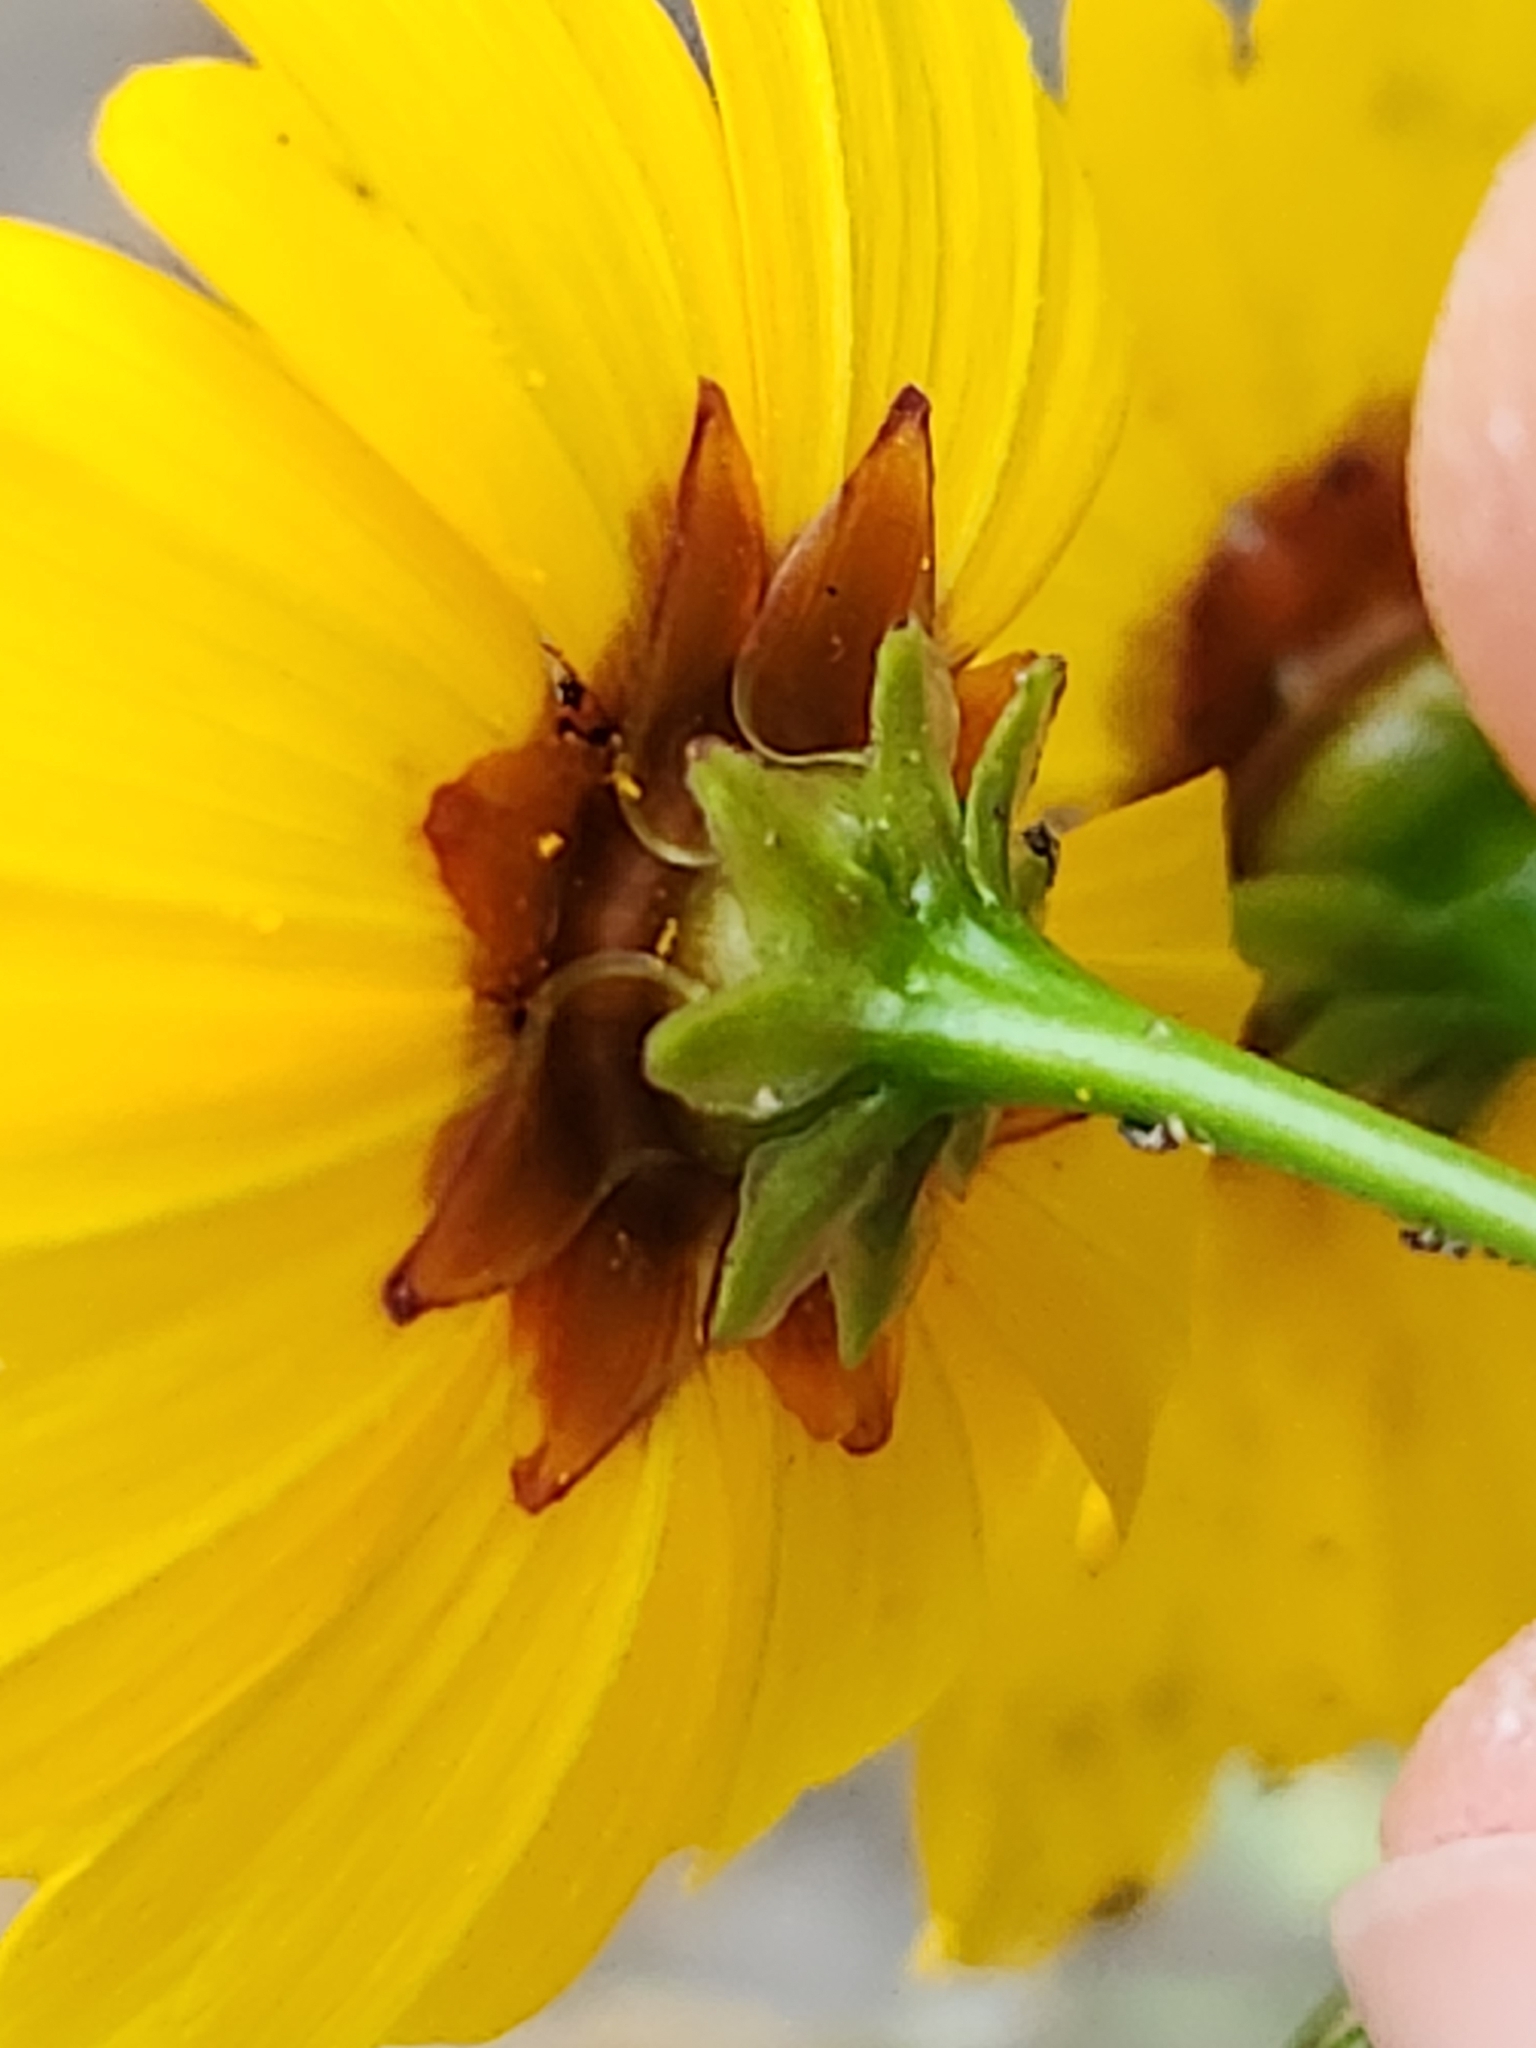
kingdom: Plantae
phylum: Tracheophyta
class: Magnoliopsida
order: Asterales
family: Asteraceae
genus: Coreopsis
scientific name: Coreopsis tinctoria
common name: Garden tickseed
